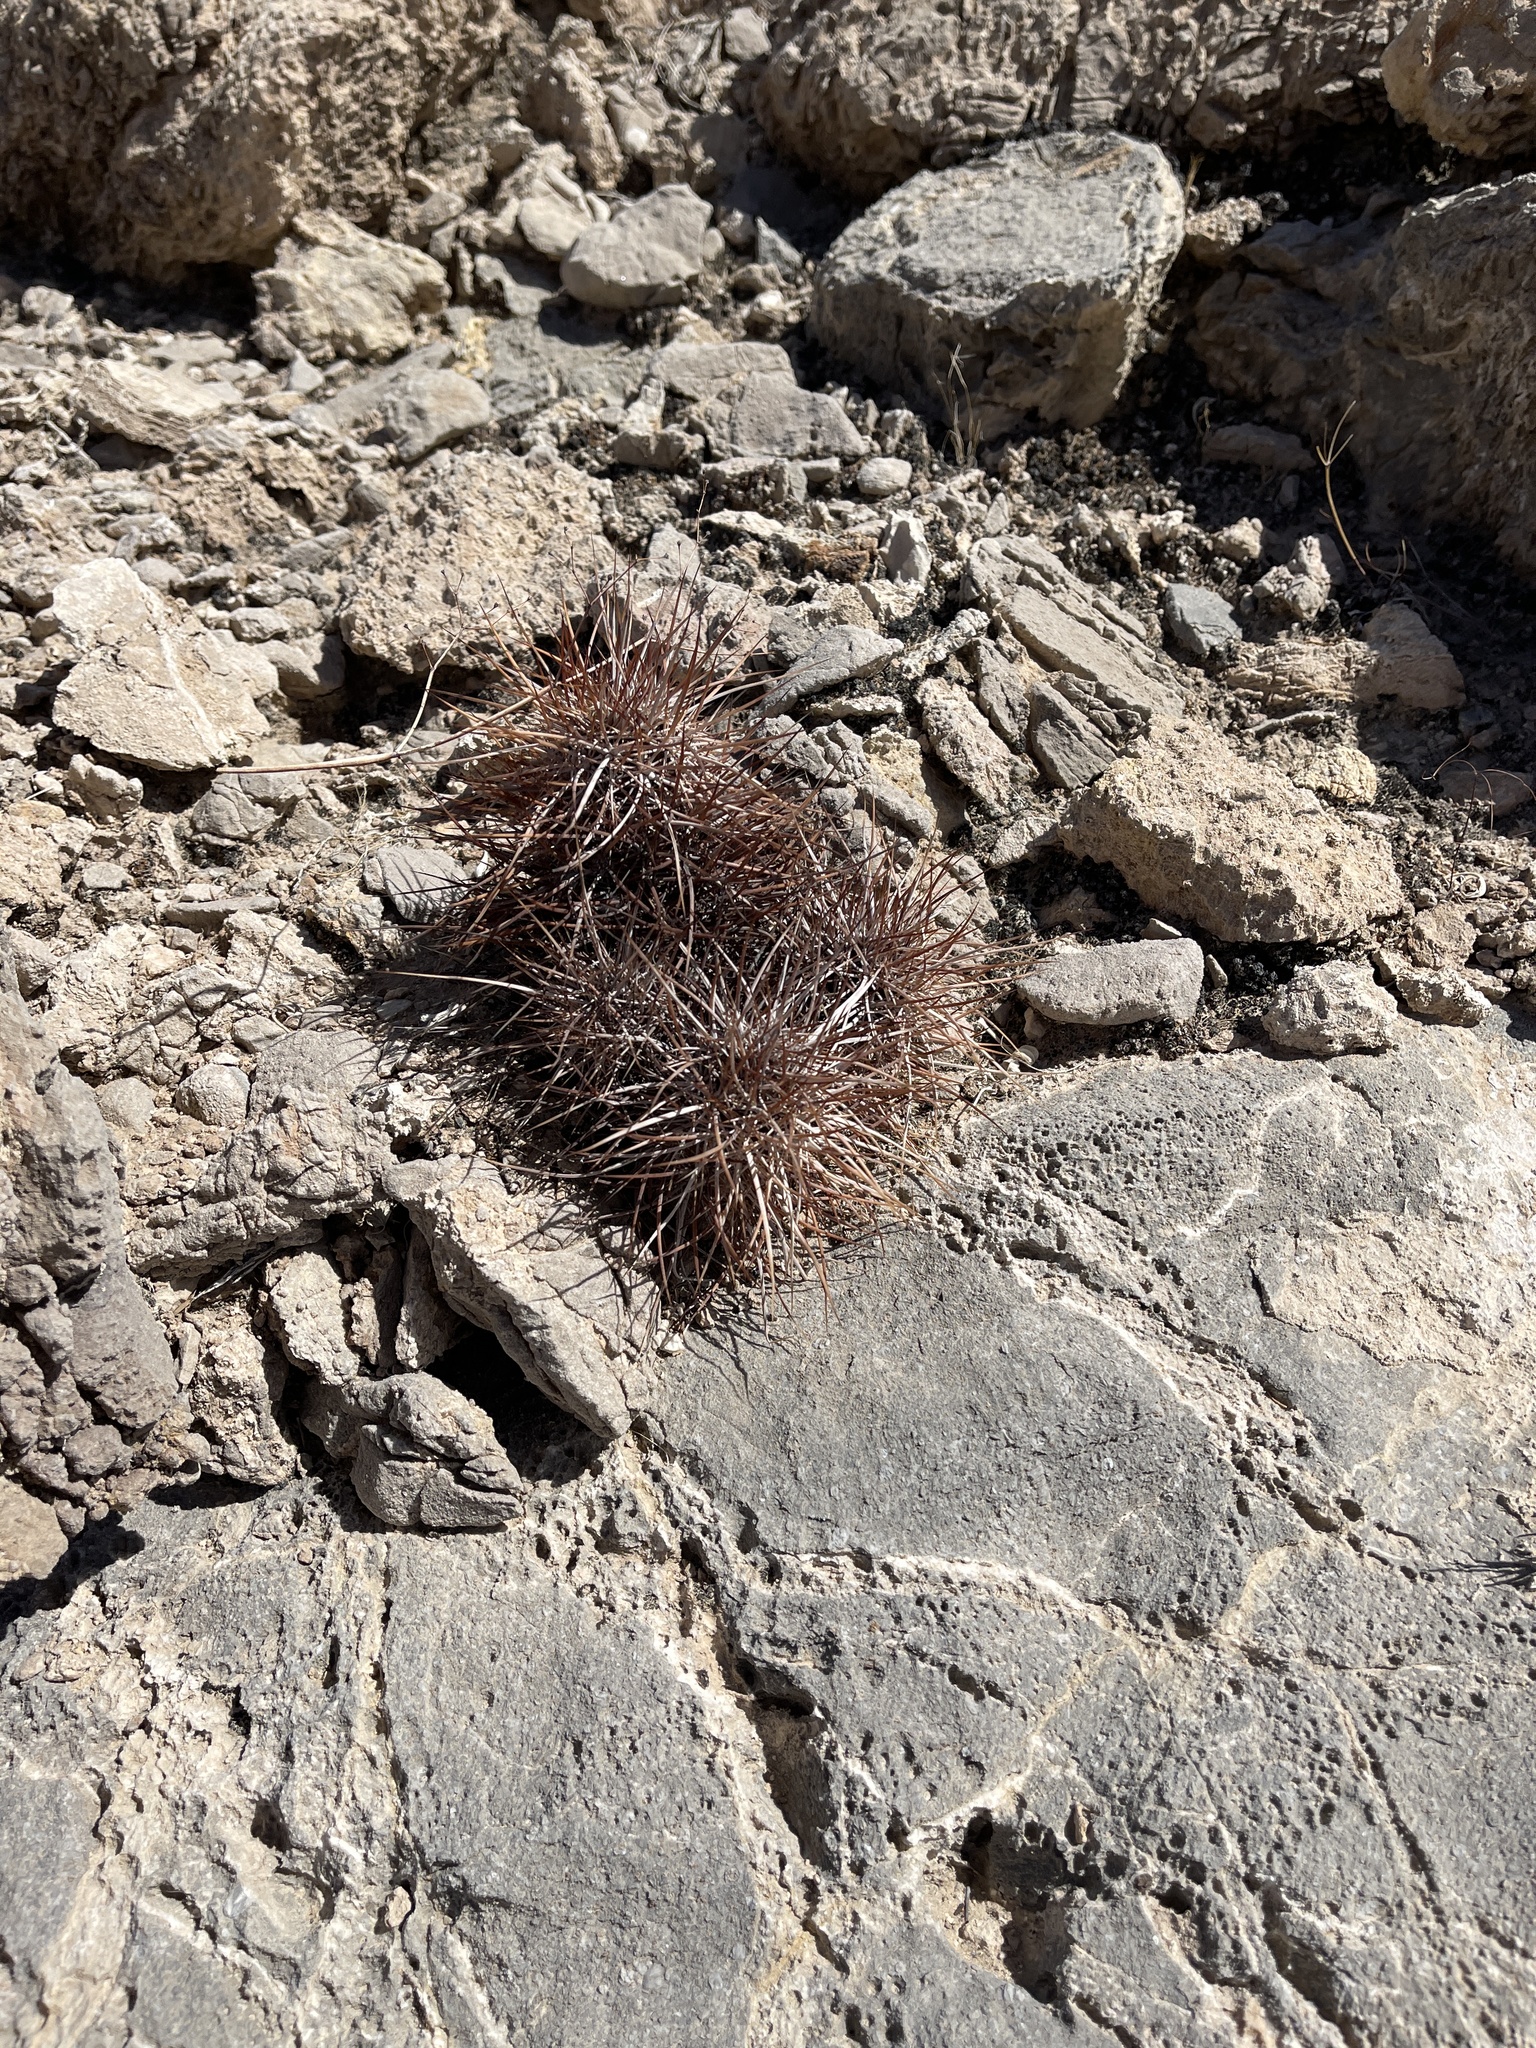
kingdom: Plantae
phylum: Tracheophyta
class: Magnoliopsida
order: Caryophyllales
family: Cactaceae
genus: Echinocereus
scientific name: Echinocereus engelmannii
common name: Engelmann's hedgehog cactus
